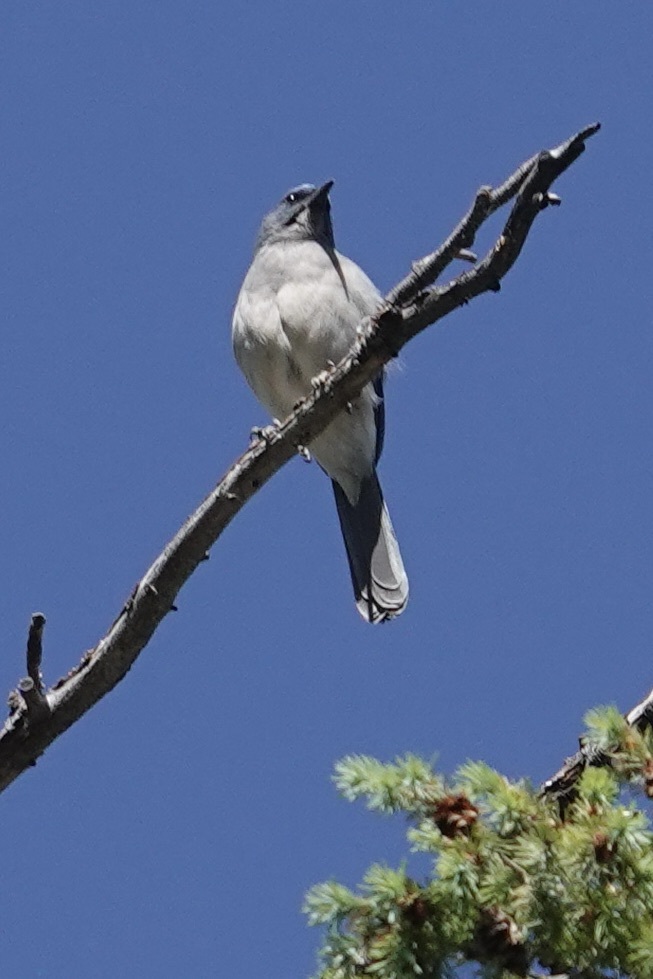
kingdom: Animalia
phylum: Chordata
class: Aves
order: Passeriformes
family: Corvidae
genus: Aphelocoma
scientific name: Aphelocoma wollweberi
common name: Mexican jay
